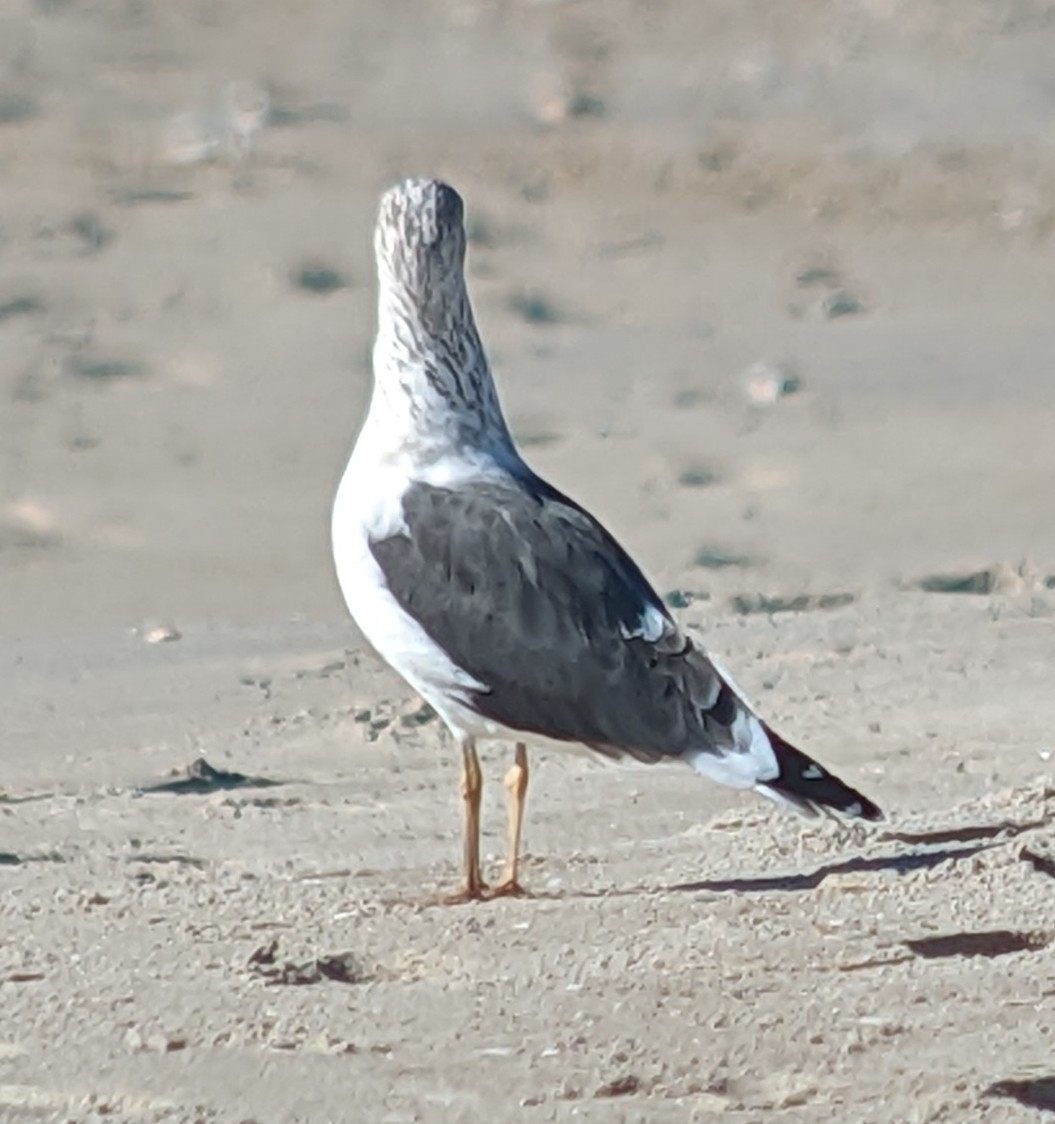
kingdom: Animalia
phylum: Chordata
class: Aves
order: Charadriiformes
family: Laridae
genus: Larus
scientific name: Larus fuscus
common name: Lesser black-backed gull
